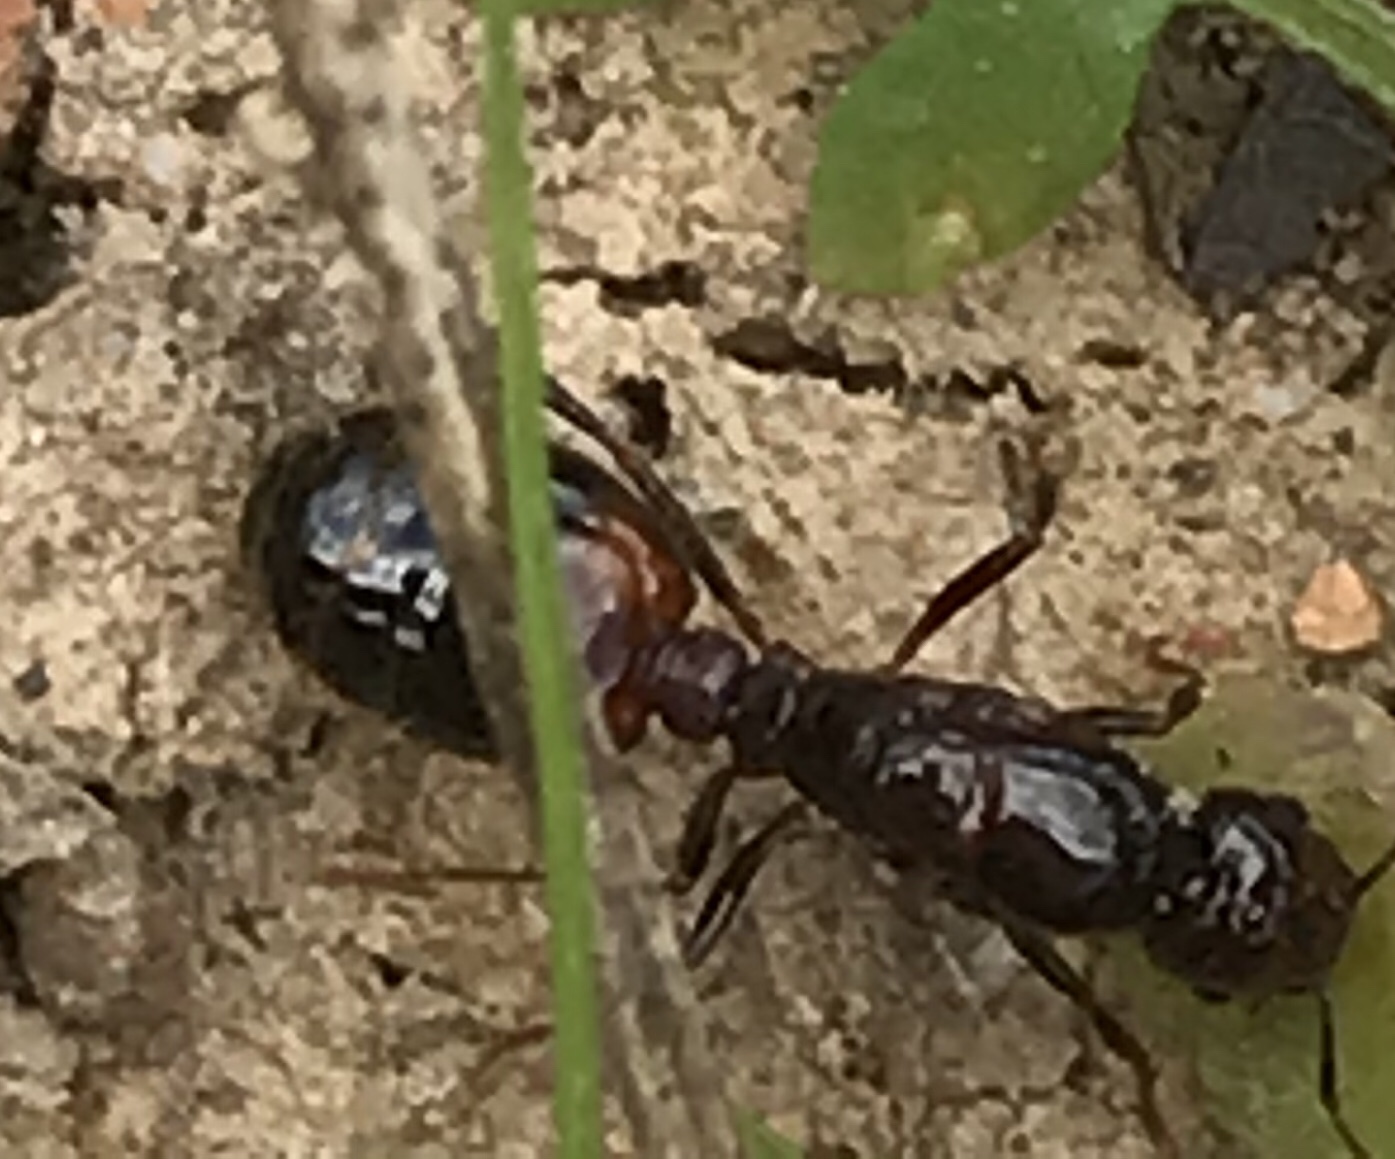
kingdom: Animalia
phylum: Arthropoda
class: Insecta
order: Hymenoptera
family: Formicidae
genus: Solenopsis
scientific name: Solenopsis
